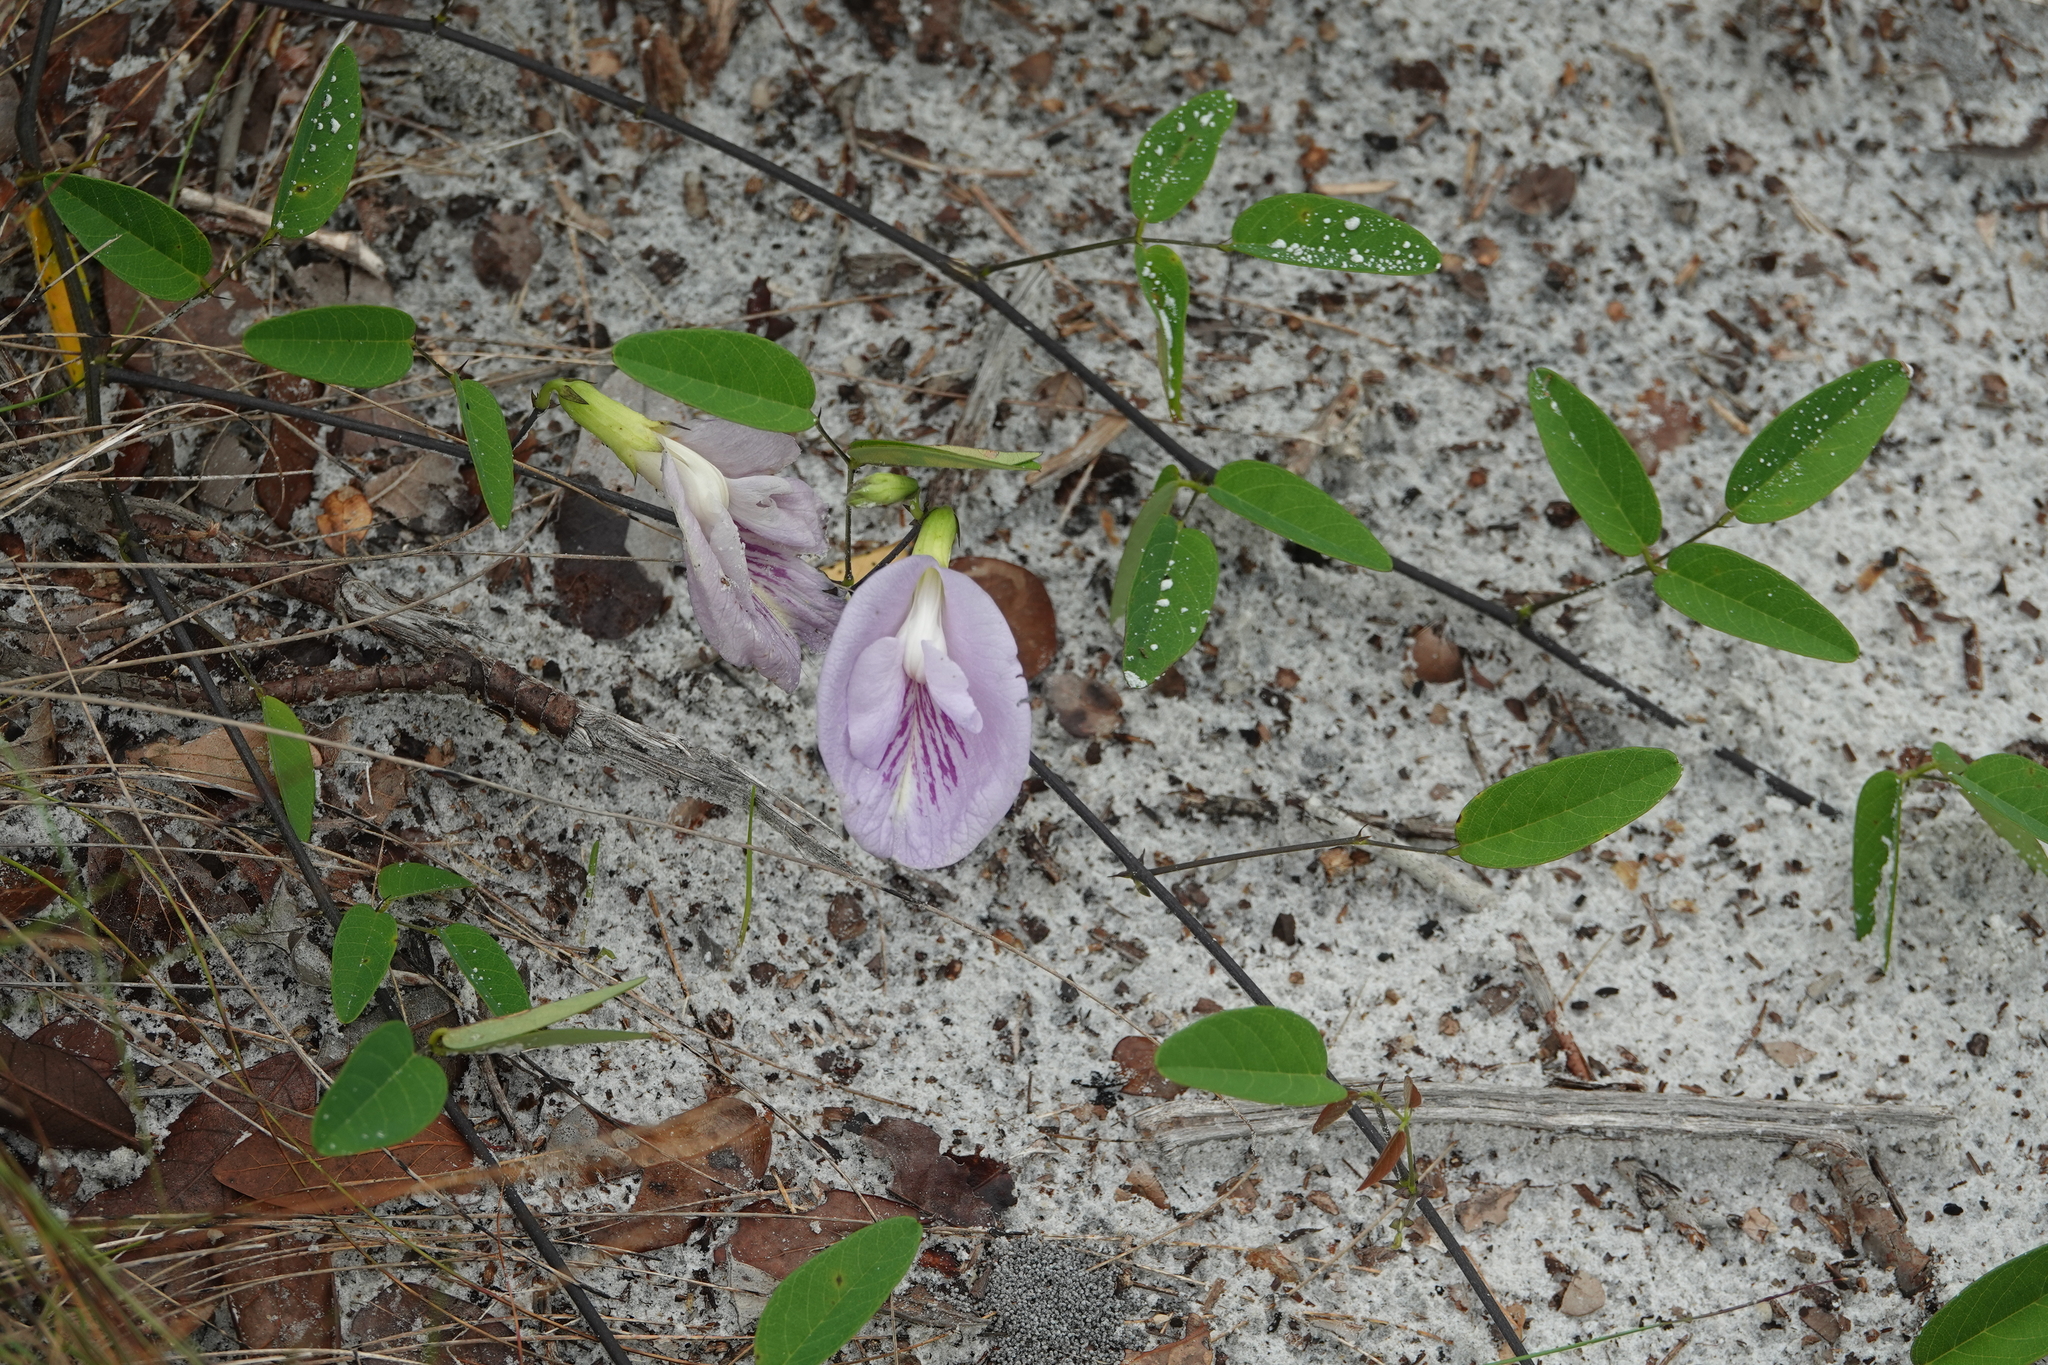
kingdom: Plantae
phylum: Tracheophyta
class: Magnoliopsida
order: Fabales
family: Fabaceae
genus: Clitoria
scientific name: Clitoria mariana
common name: Butterfly-pea
